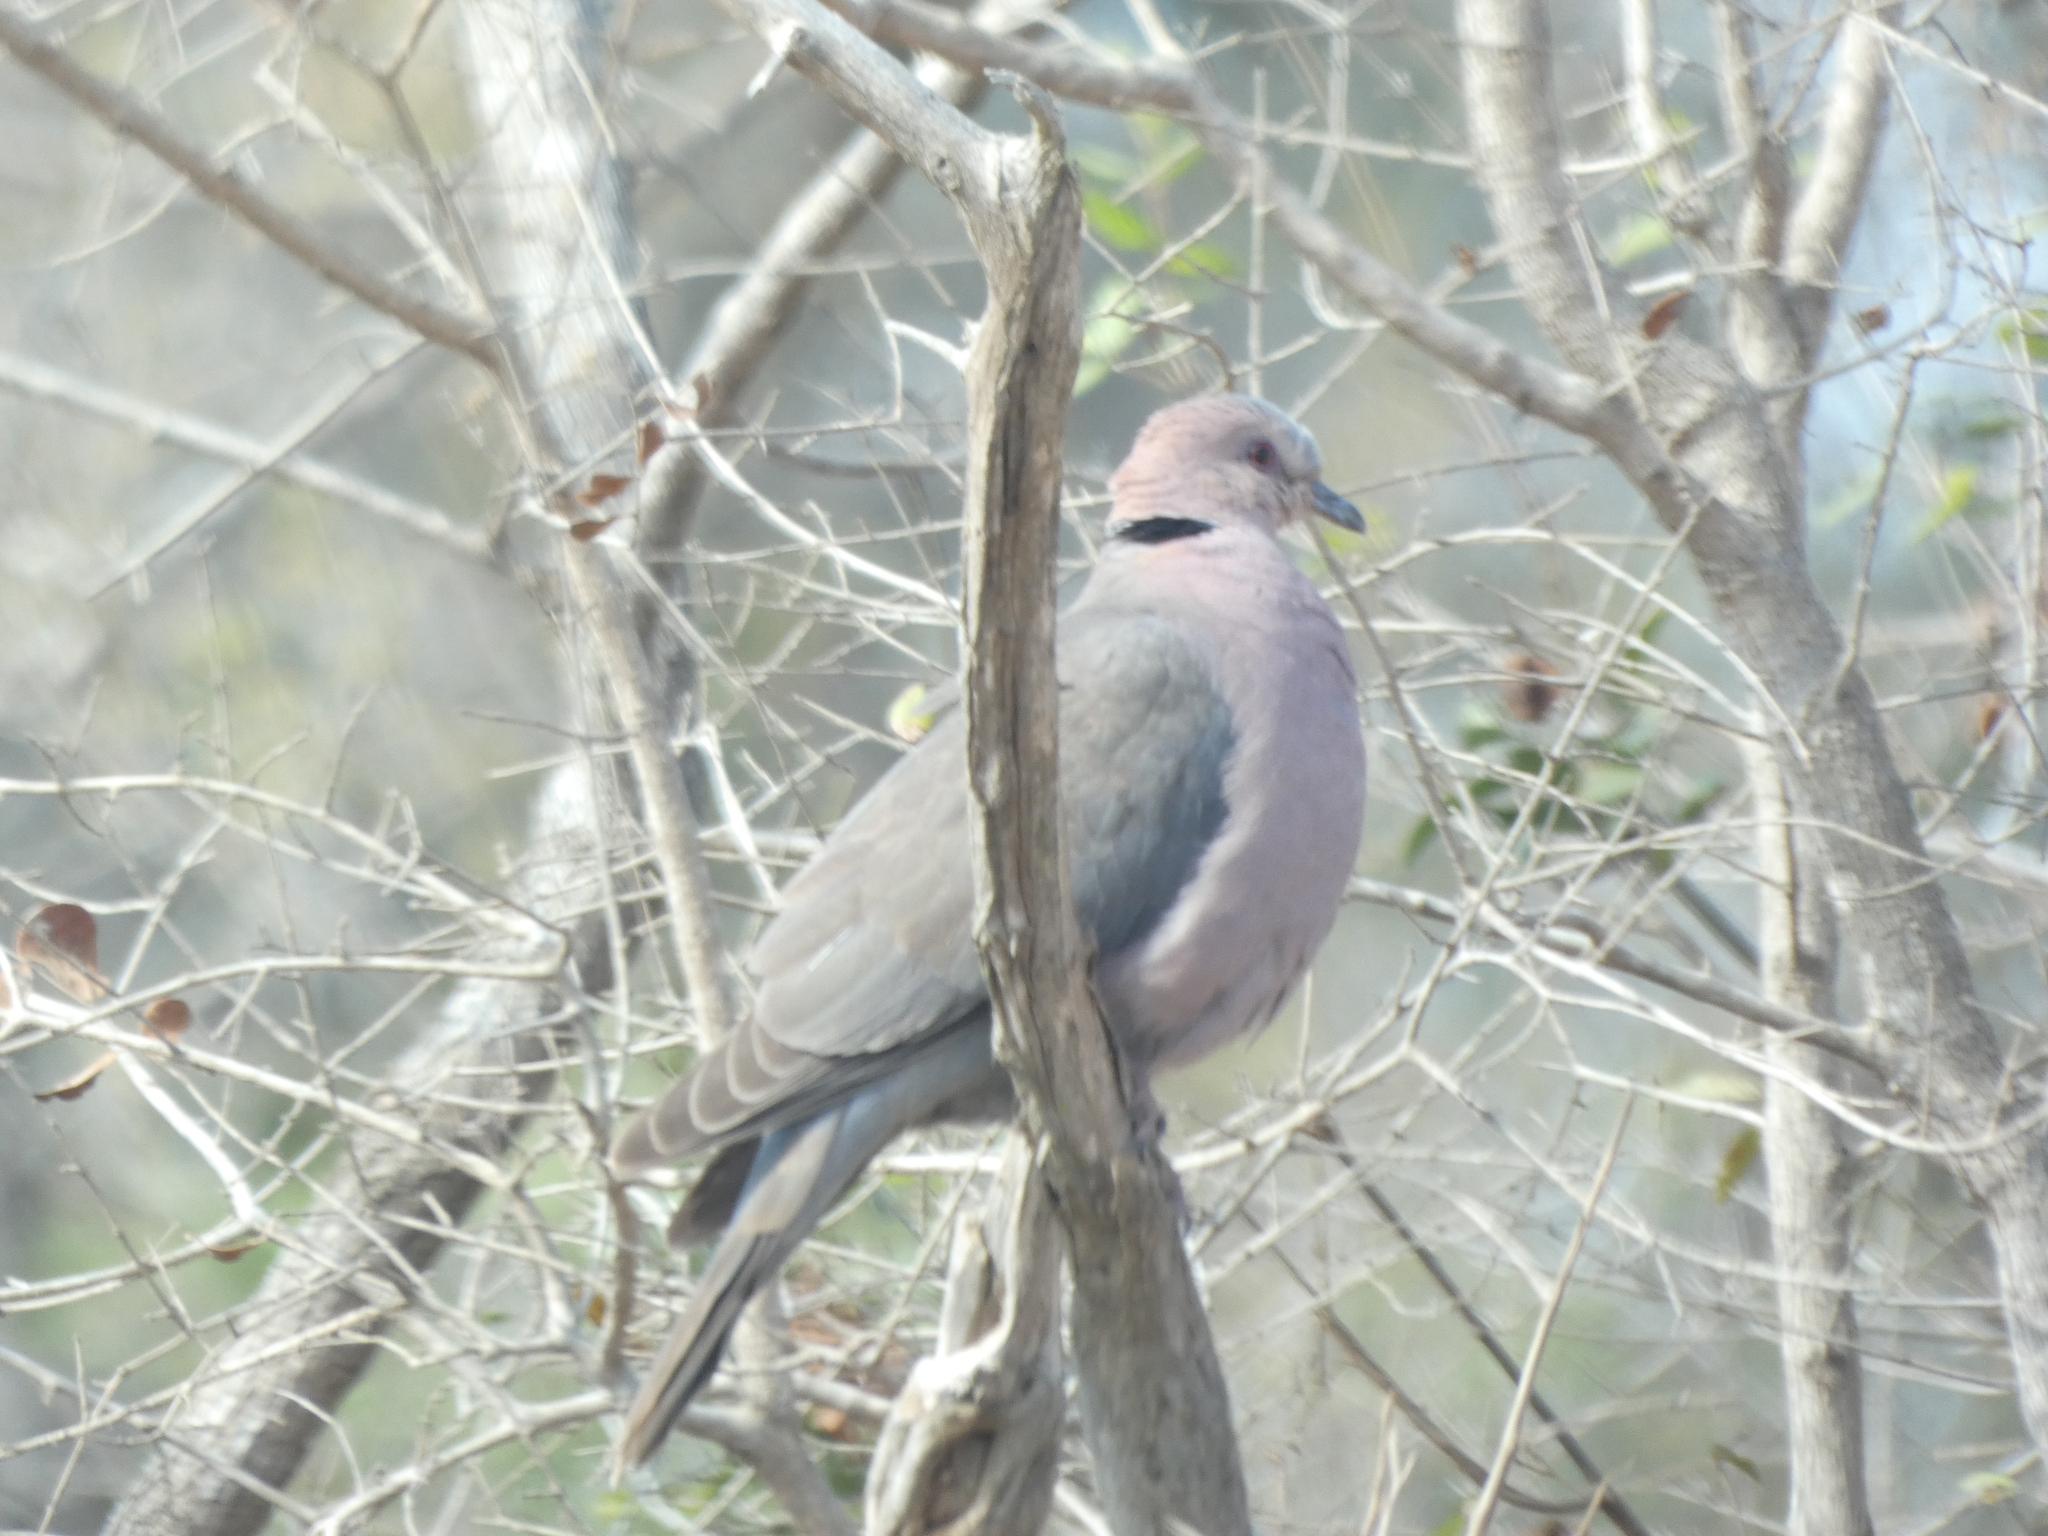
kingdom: Animalia
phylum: Chordata
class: Aves
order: Columbiformes
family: Columbidae
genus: Streptopelia
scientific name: Streptopelia semitorquata
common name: Red-eyed dove
